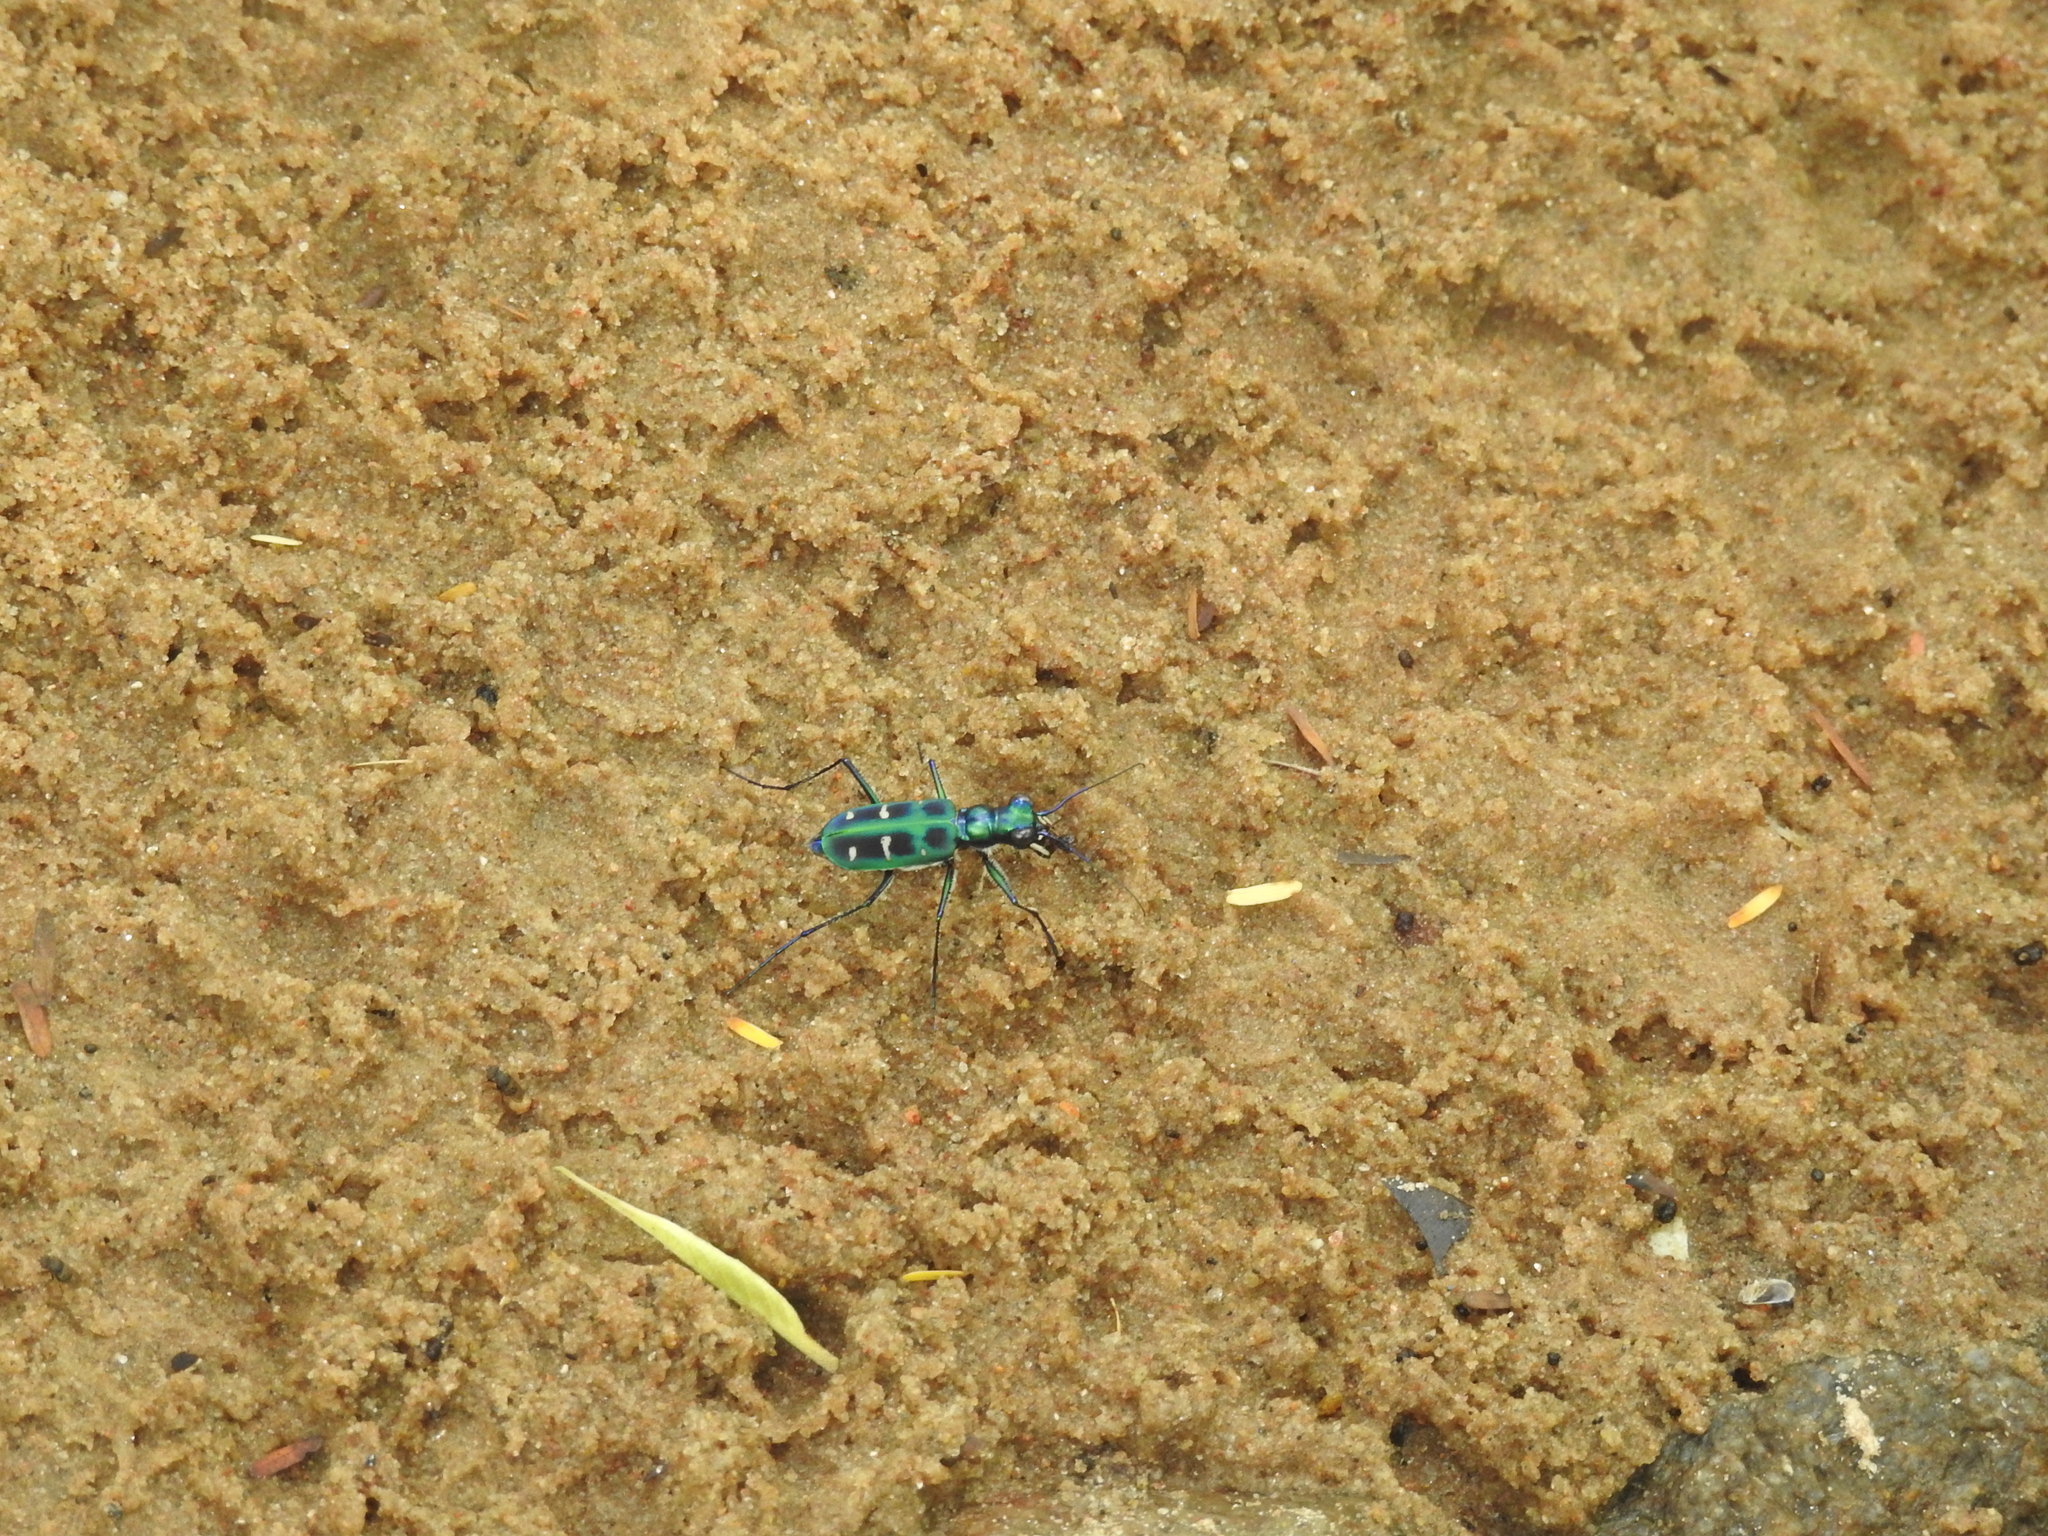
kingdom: Animalia
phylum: Arthropoda
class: Insecta
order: Coleoptera
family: Carabidae
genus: Cicindela
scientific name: Cicindela barmanica
